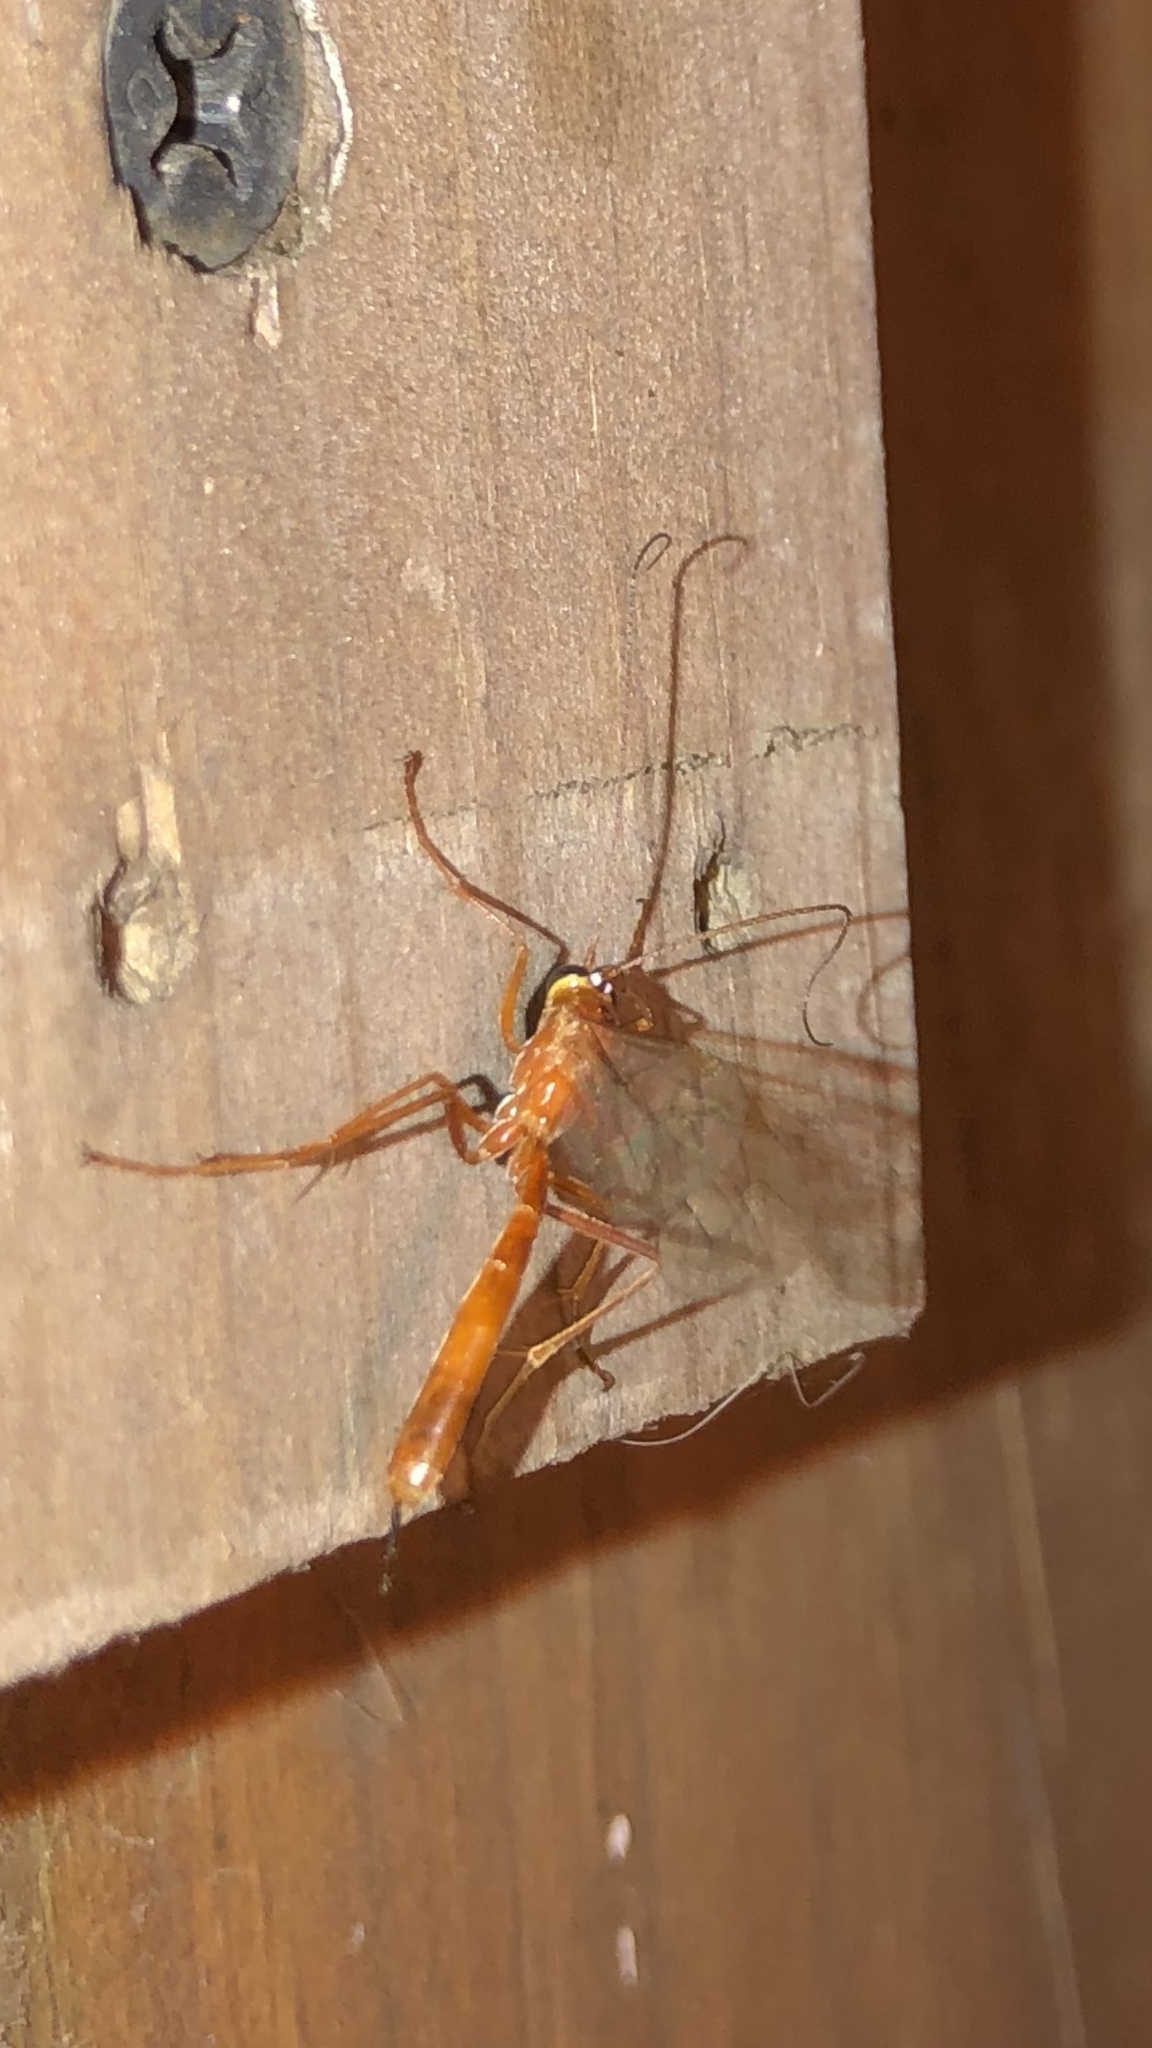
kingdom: Animalia
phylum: Arthropoda
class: Insecta
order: Hymenoptera
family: Ichneumonidae
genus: Netelia
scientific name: Netelia
